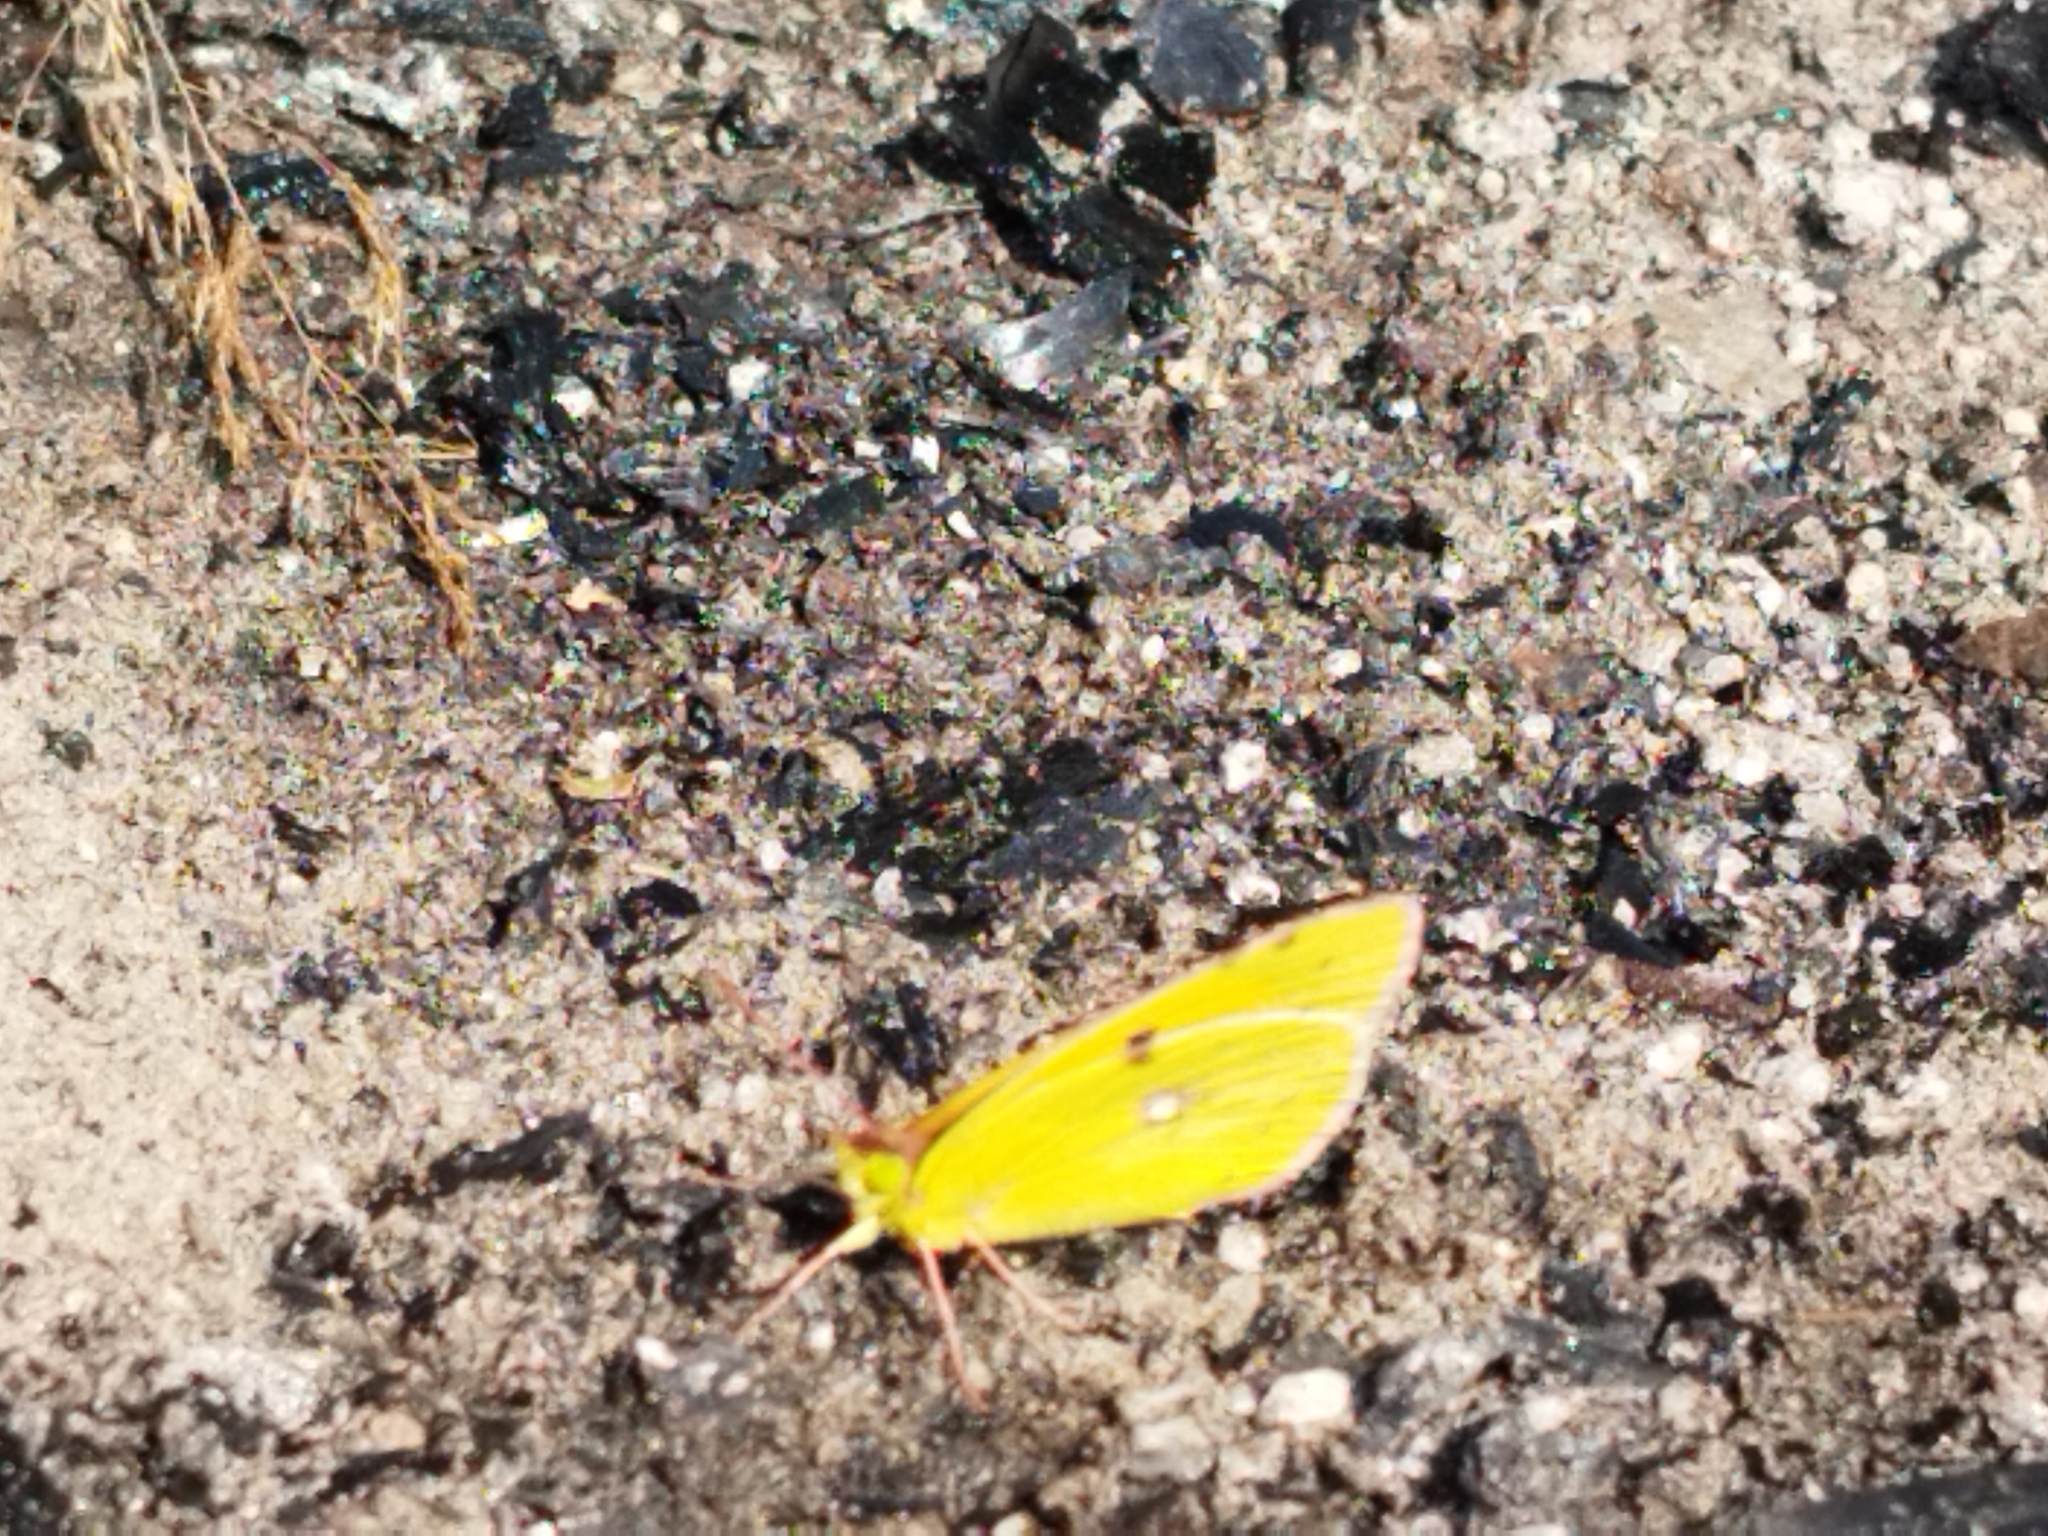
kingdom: Animalia
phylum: Arthropoda
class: Insecta
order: Lepidoptera
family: Pieridae
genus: Colias
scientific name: Colias myrmidone
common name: Danube clouded yellow
